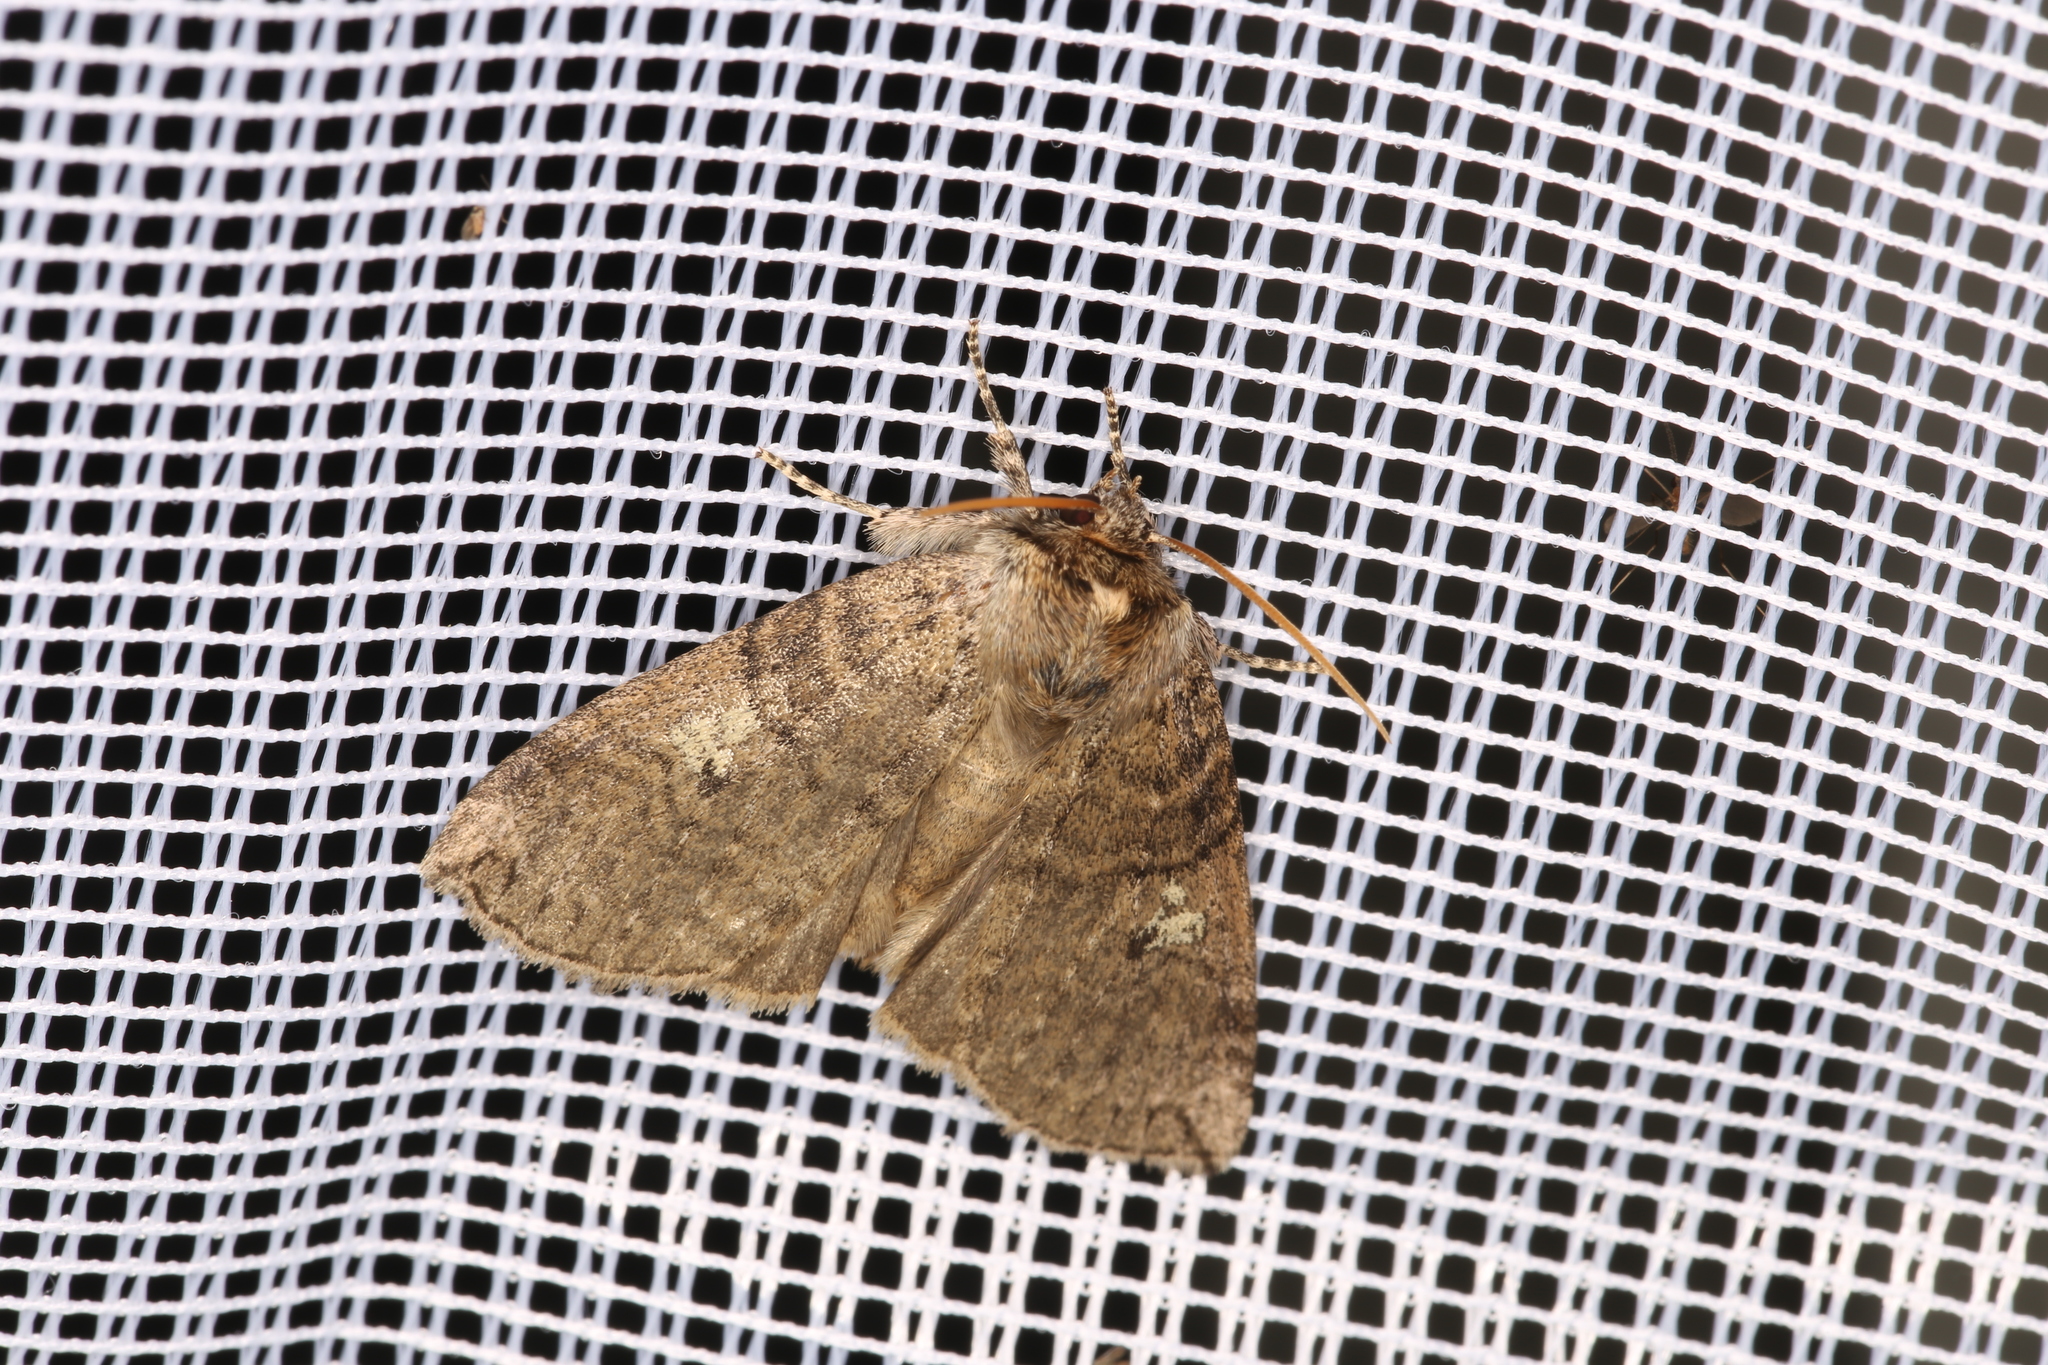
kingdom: Animalia
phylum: Arthropoda
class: Insecta
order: Lepidoptera
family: Drepanidae
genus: Tethea
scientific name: Tethea or
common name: Poplar lutestring
